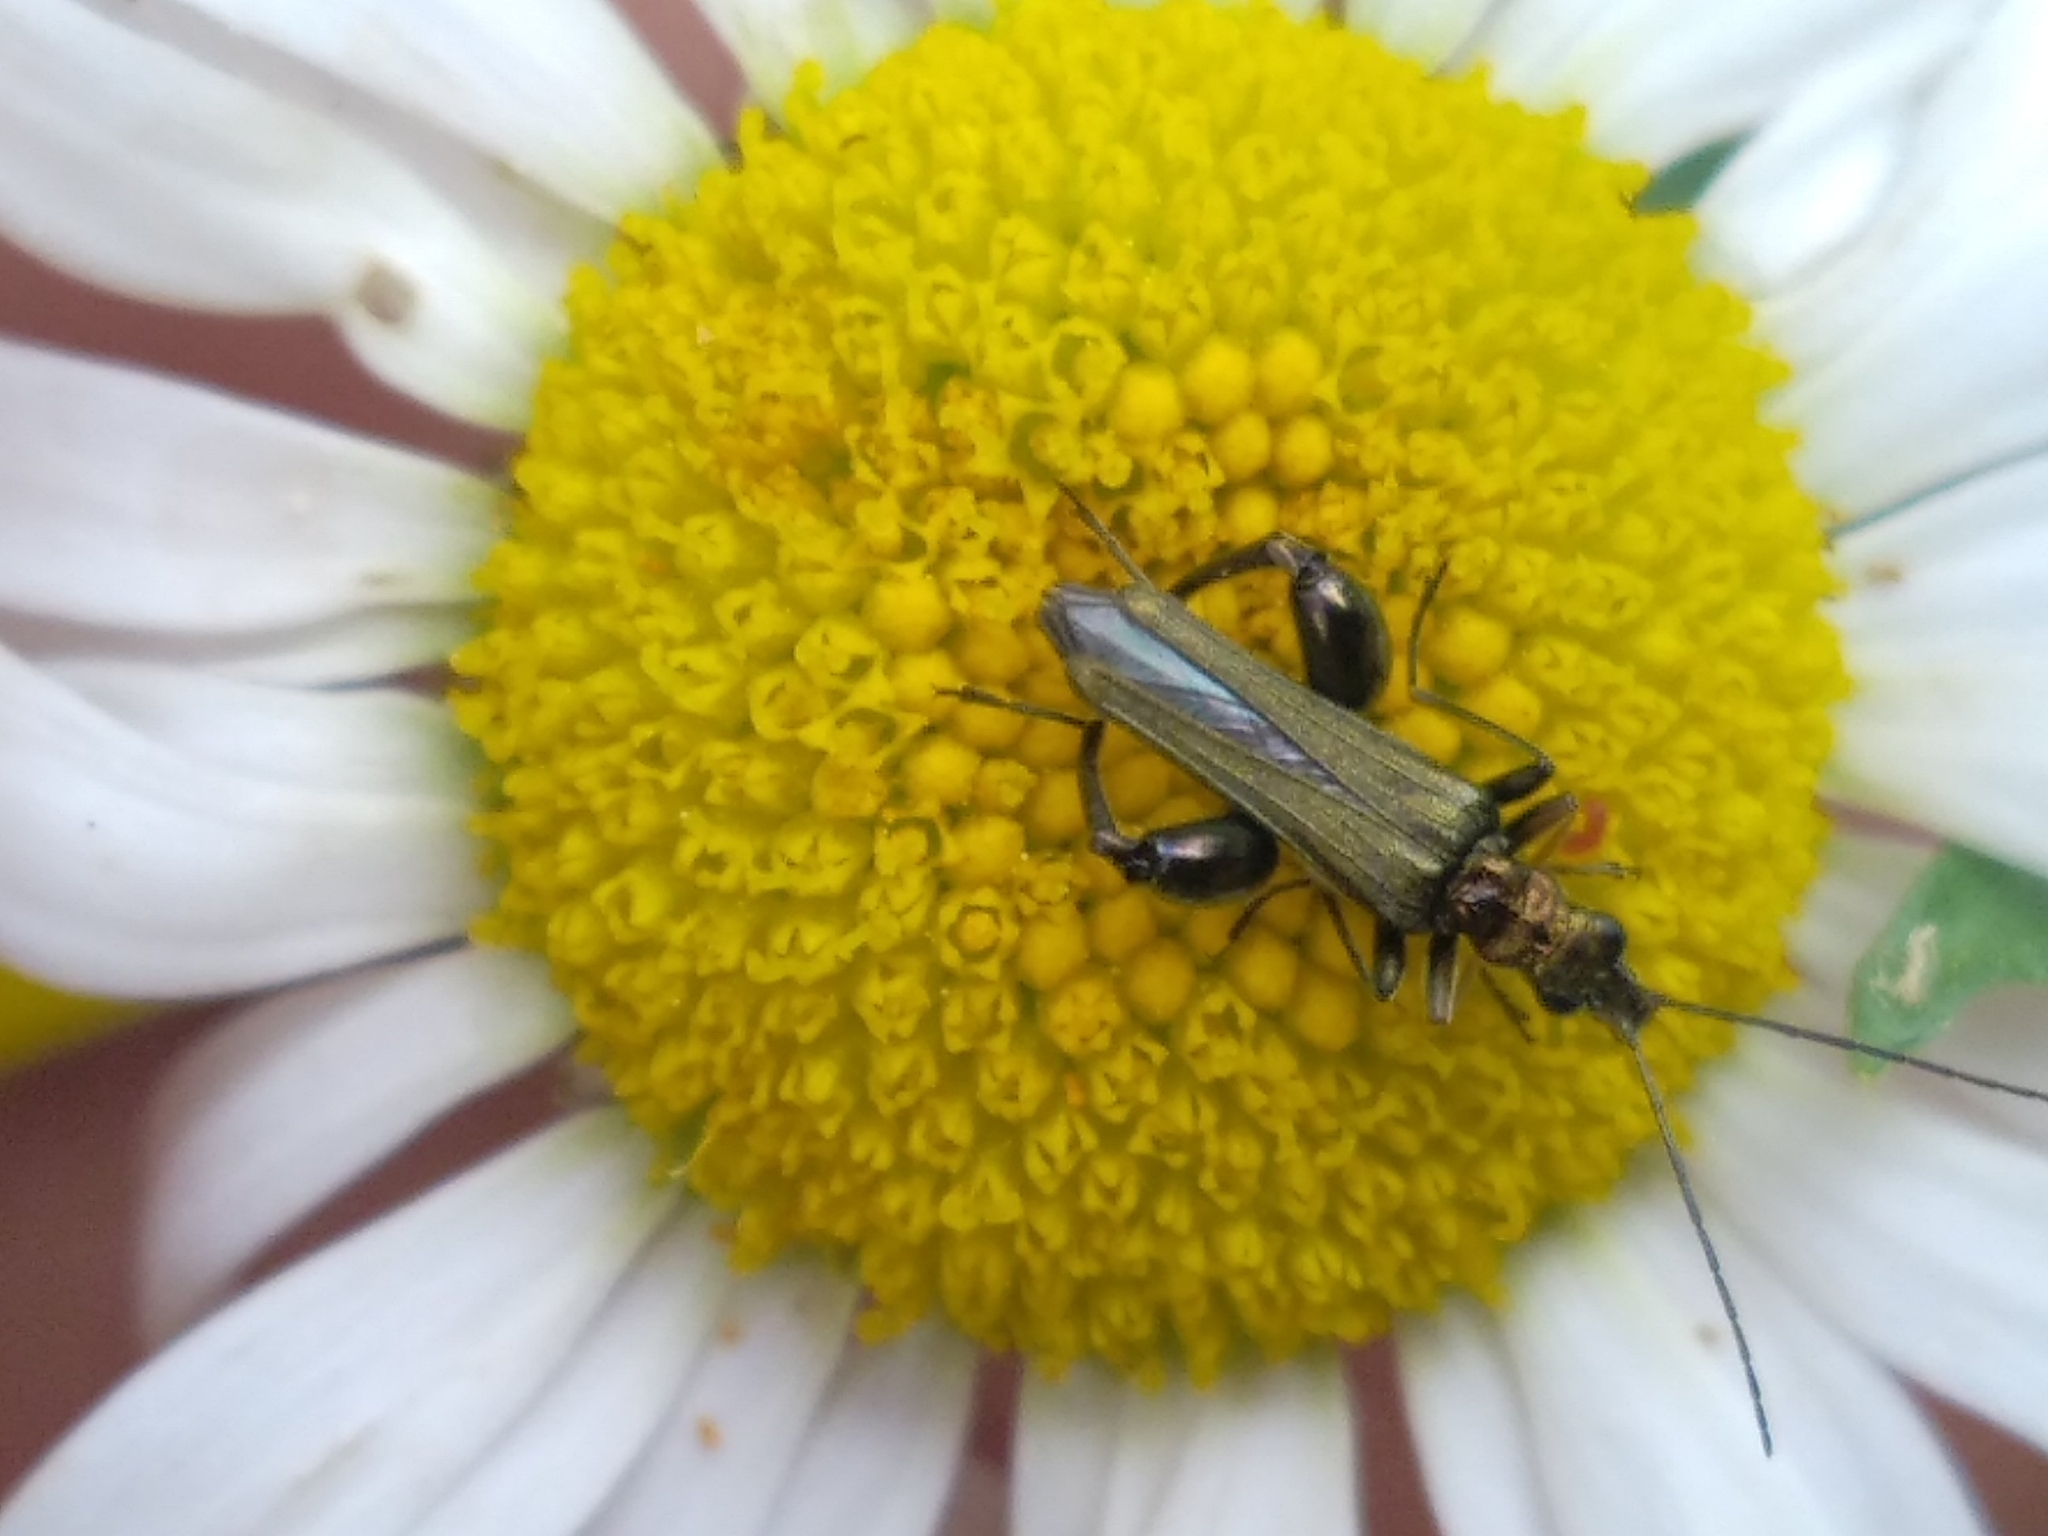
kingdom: Animalia
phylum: Arthropoda
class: Insecta
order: Coleoptera
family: Oedemeridae
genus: Oedemera
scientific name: Oedemera flavipes
